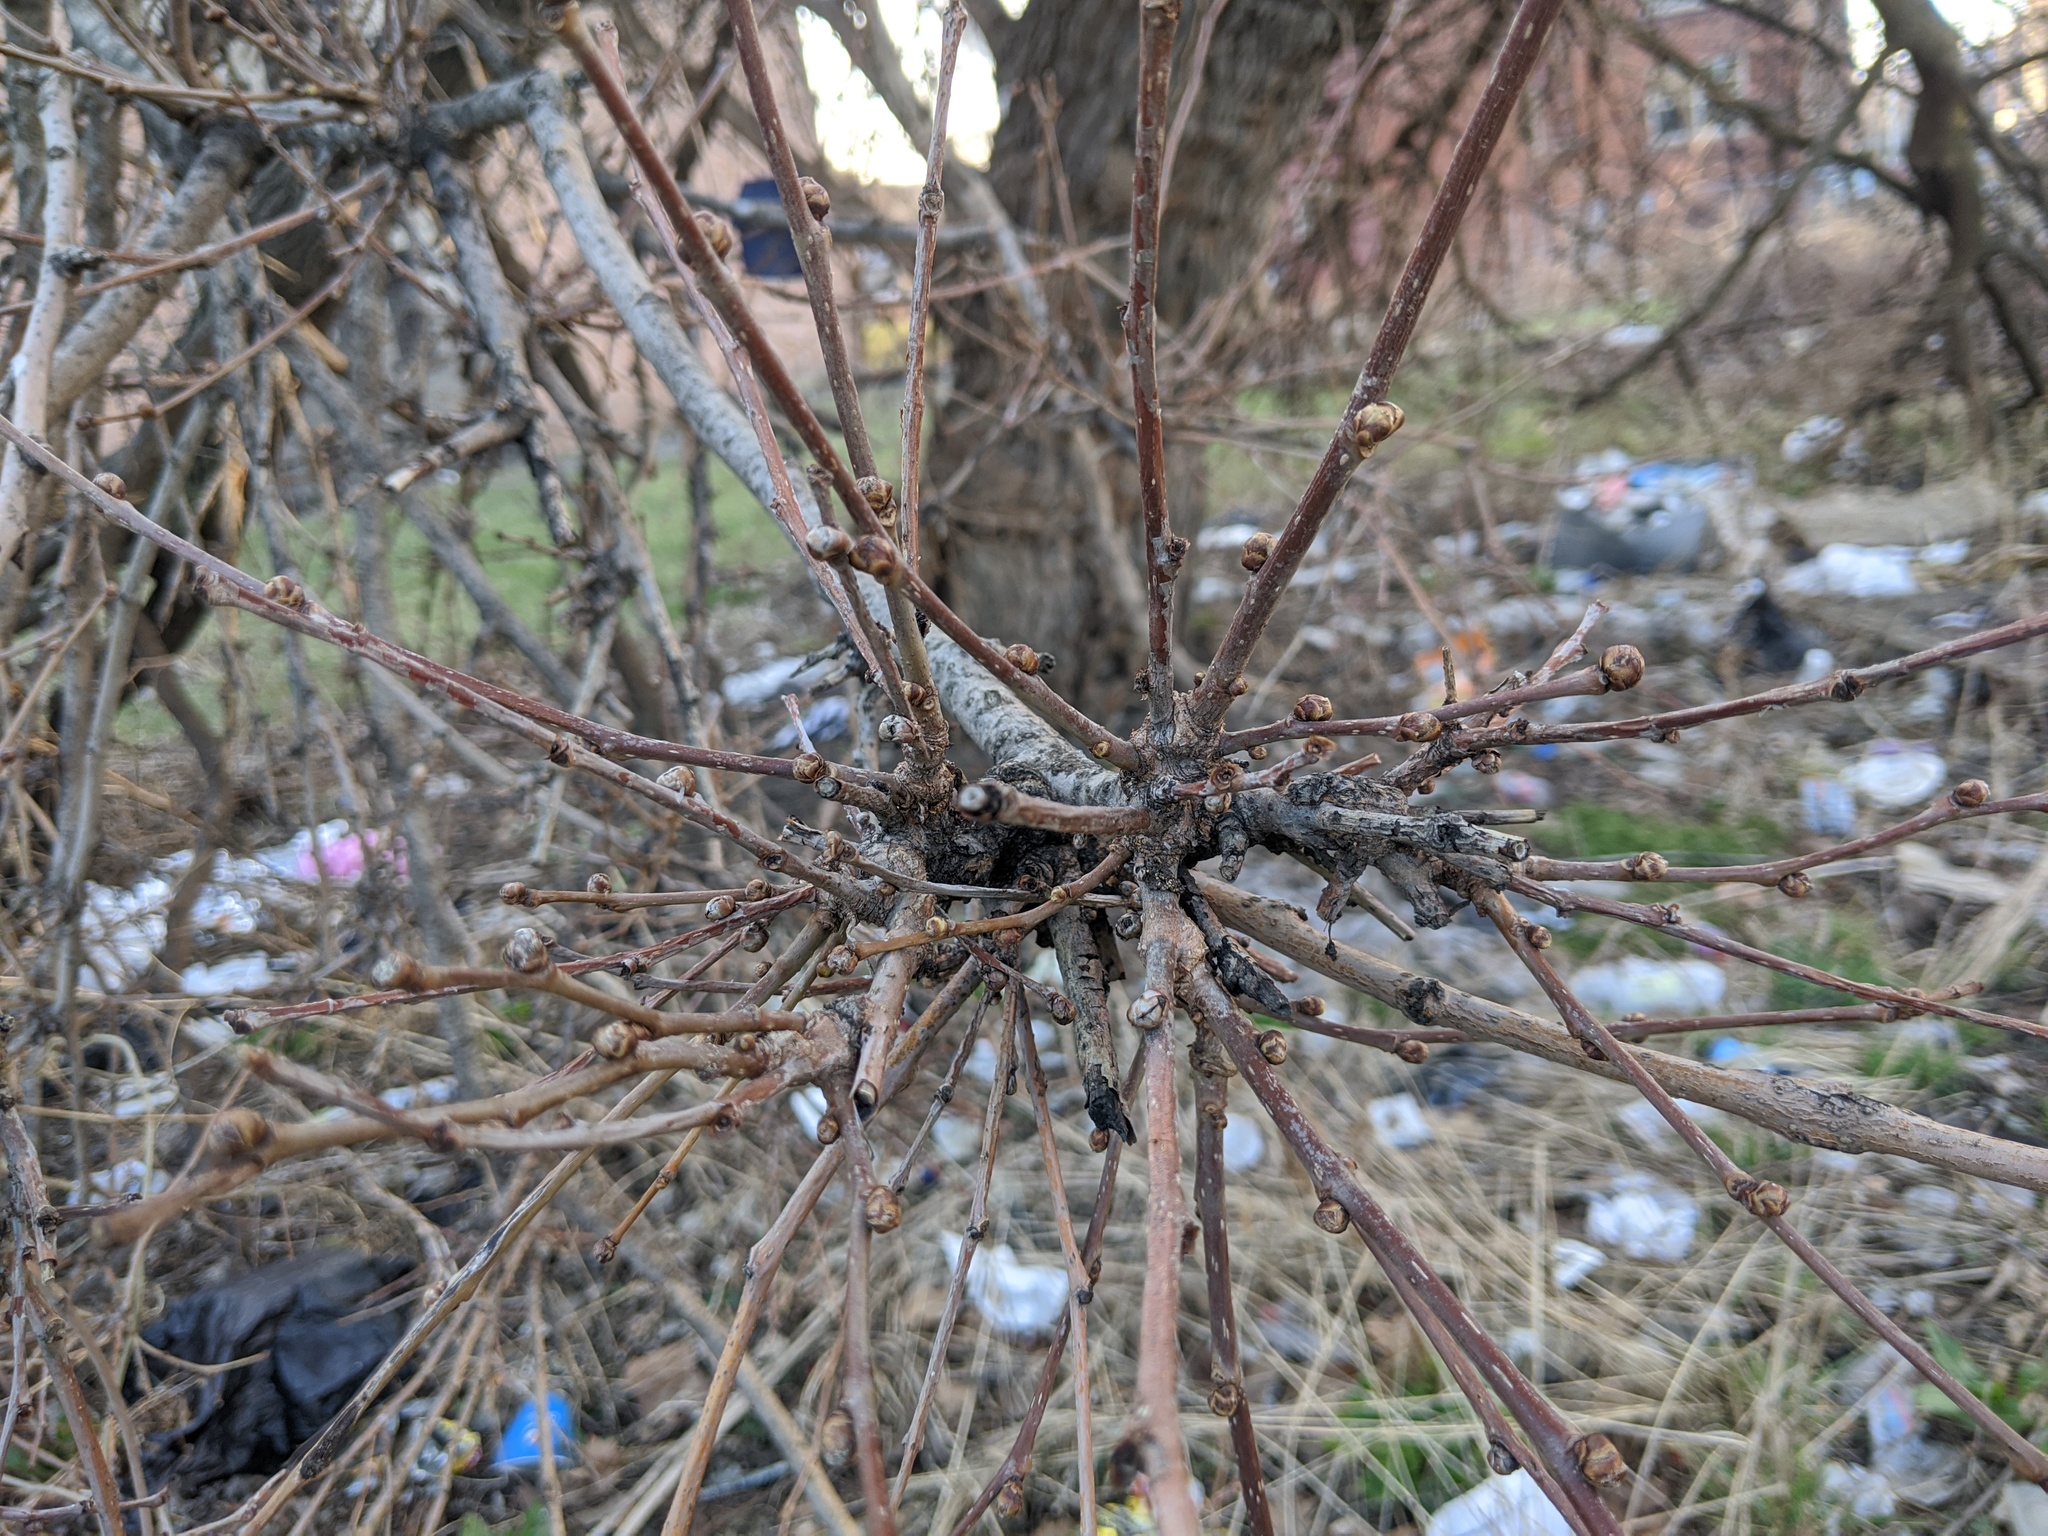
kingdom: Animalia
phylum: Arthropoda
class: Arachnida
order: Trombidiformes
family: Eriophyidae
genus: Aceria
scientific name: Aceria mori
